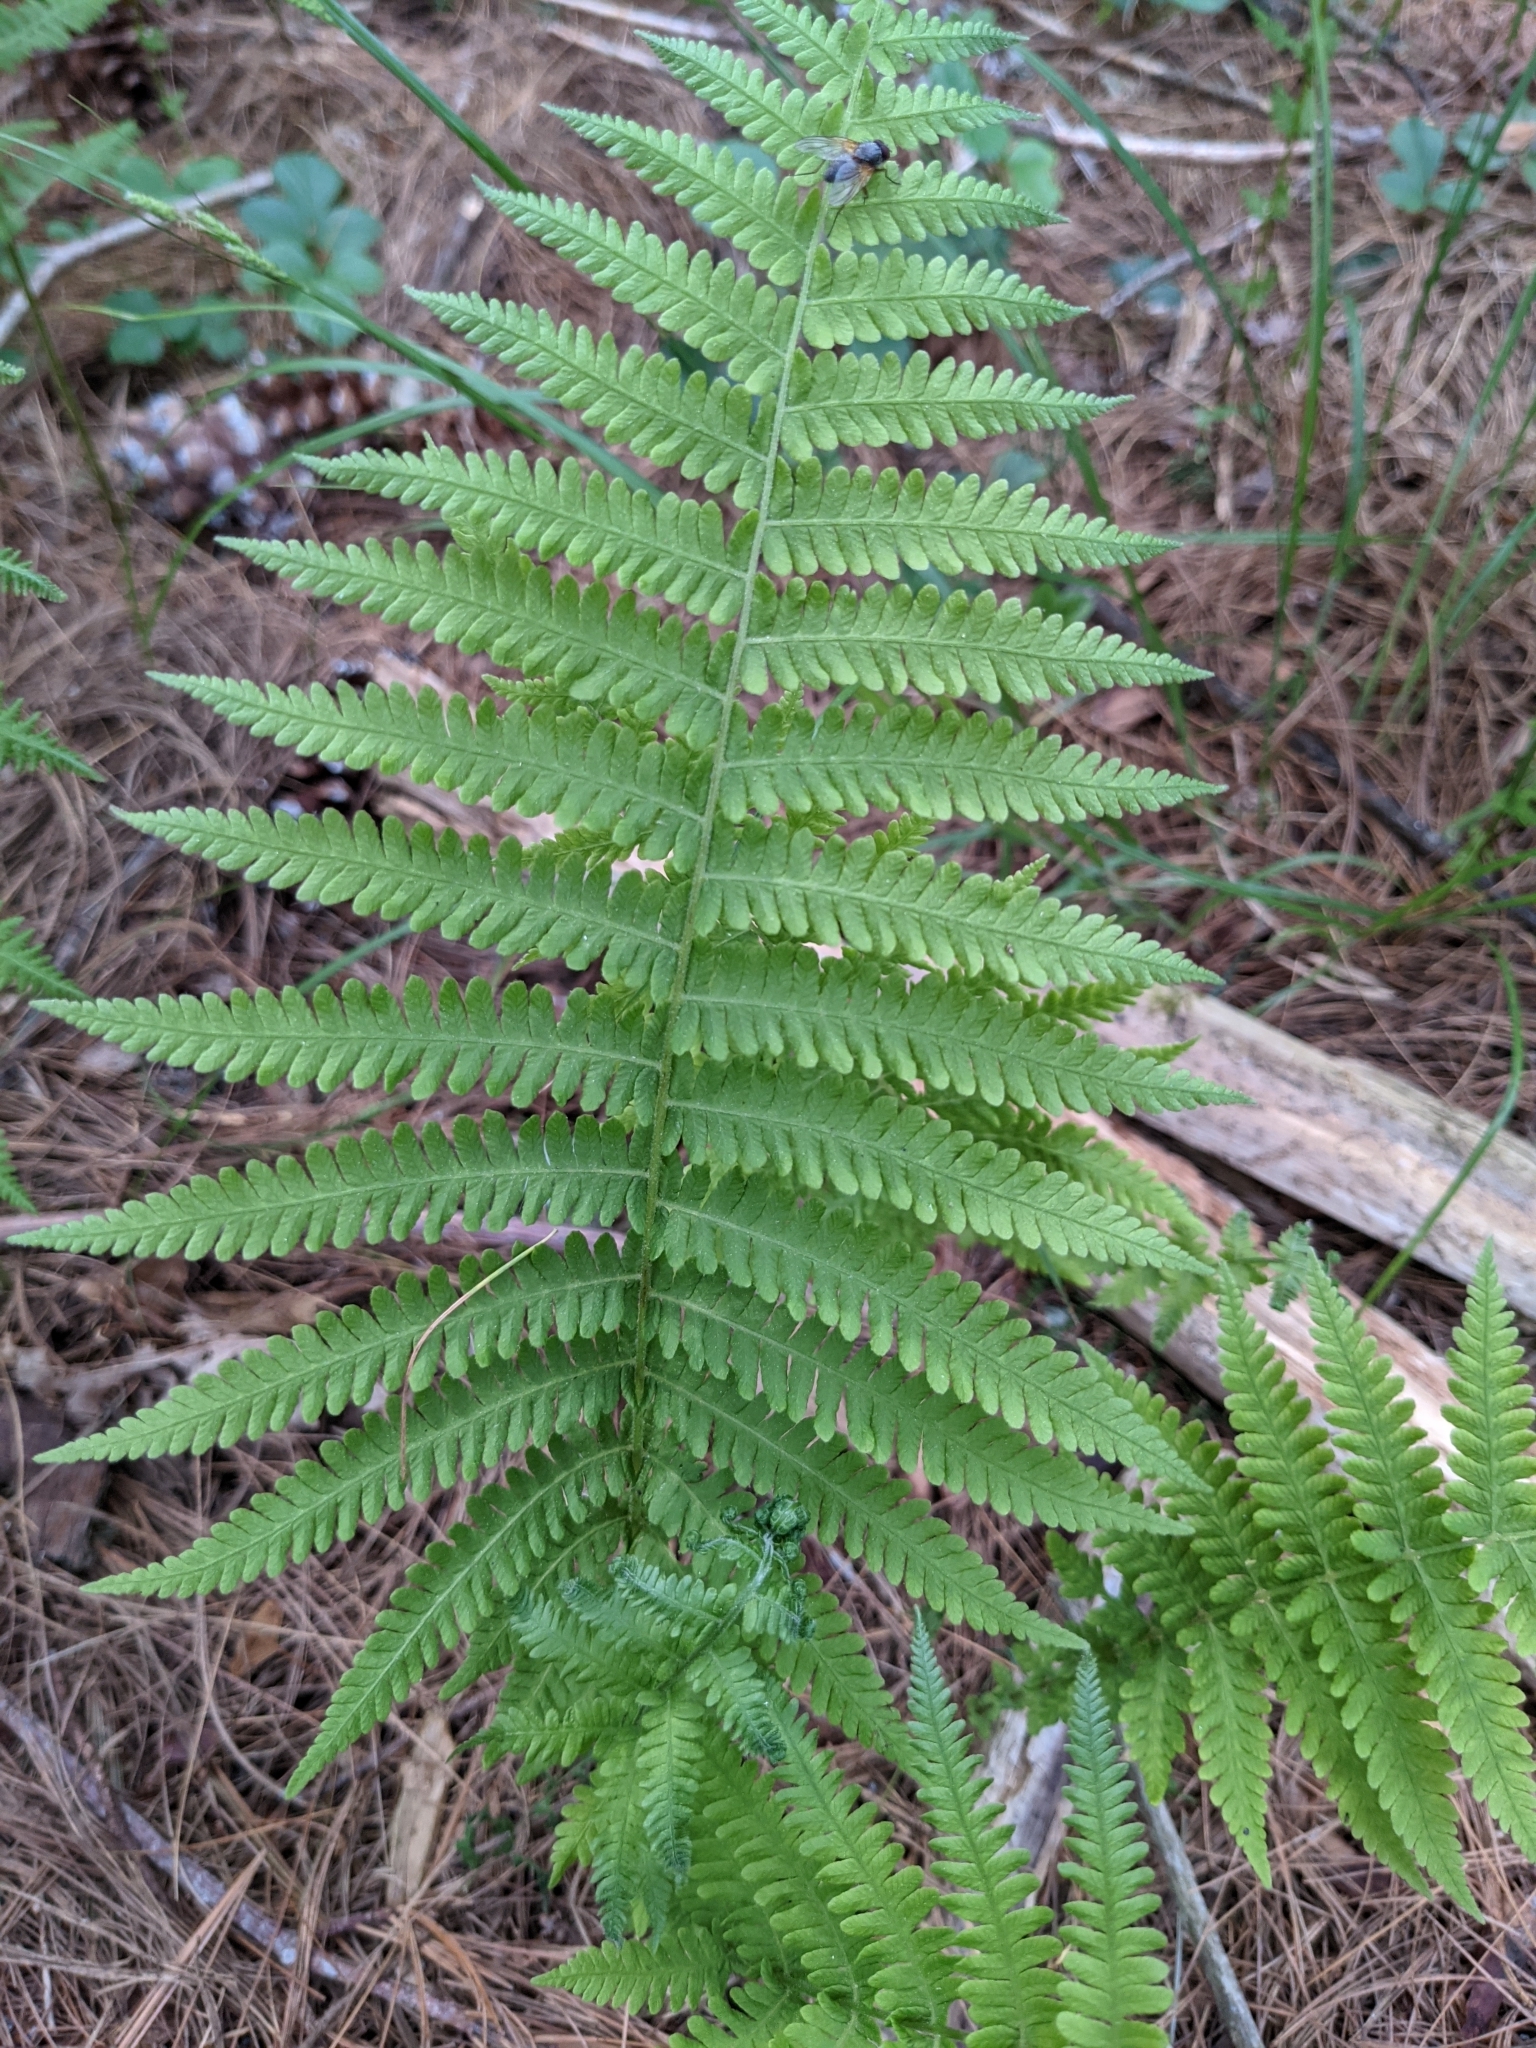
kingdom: Plantae
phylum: Tracheophyta
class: Polypodiopsida
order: Polypodiales
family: Thelypteridaceae
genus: Amauropelta
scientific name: Amauropelta noveboracensis
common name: New york fern
